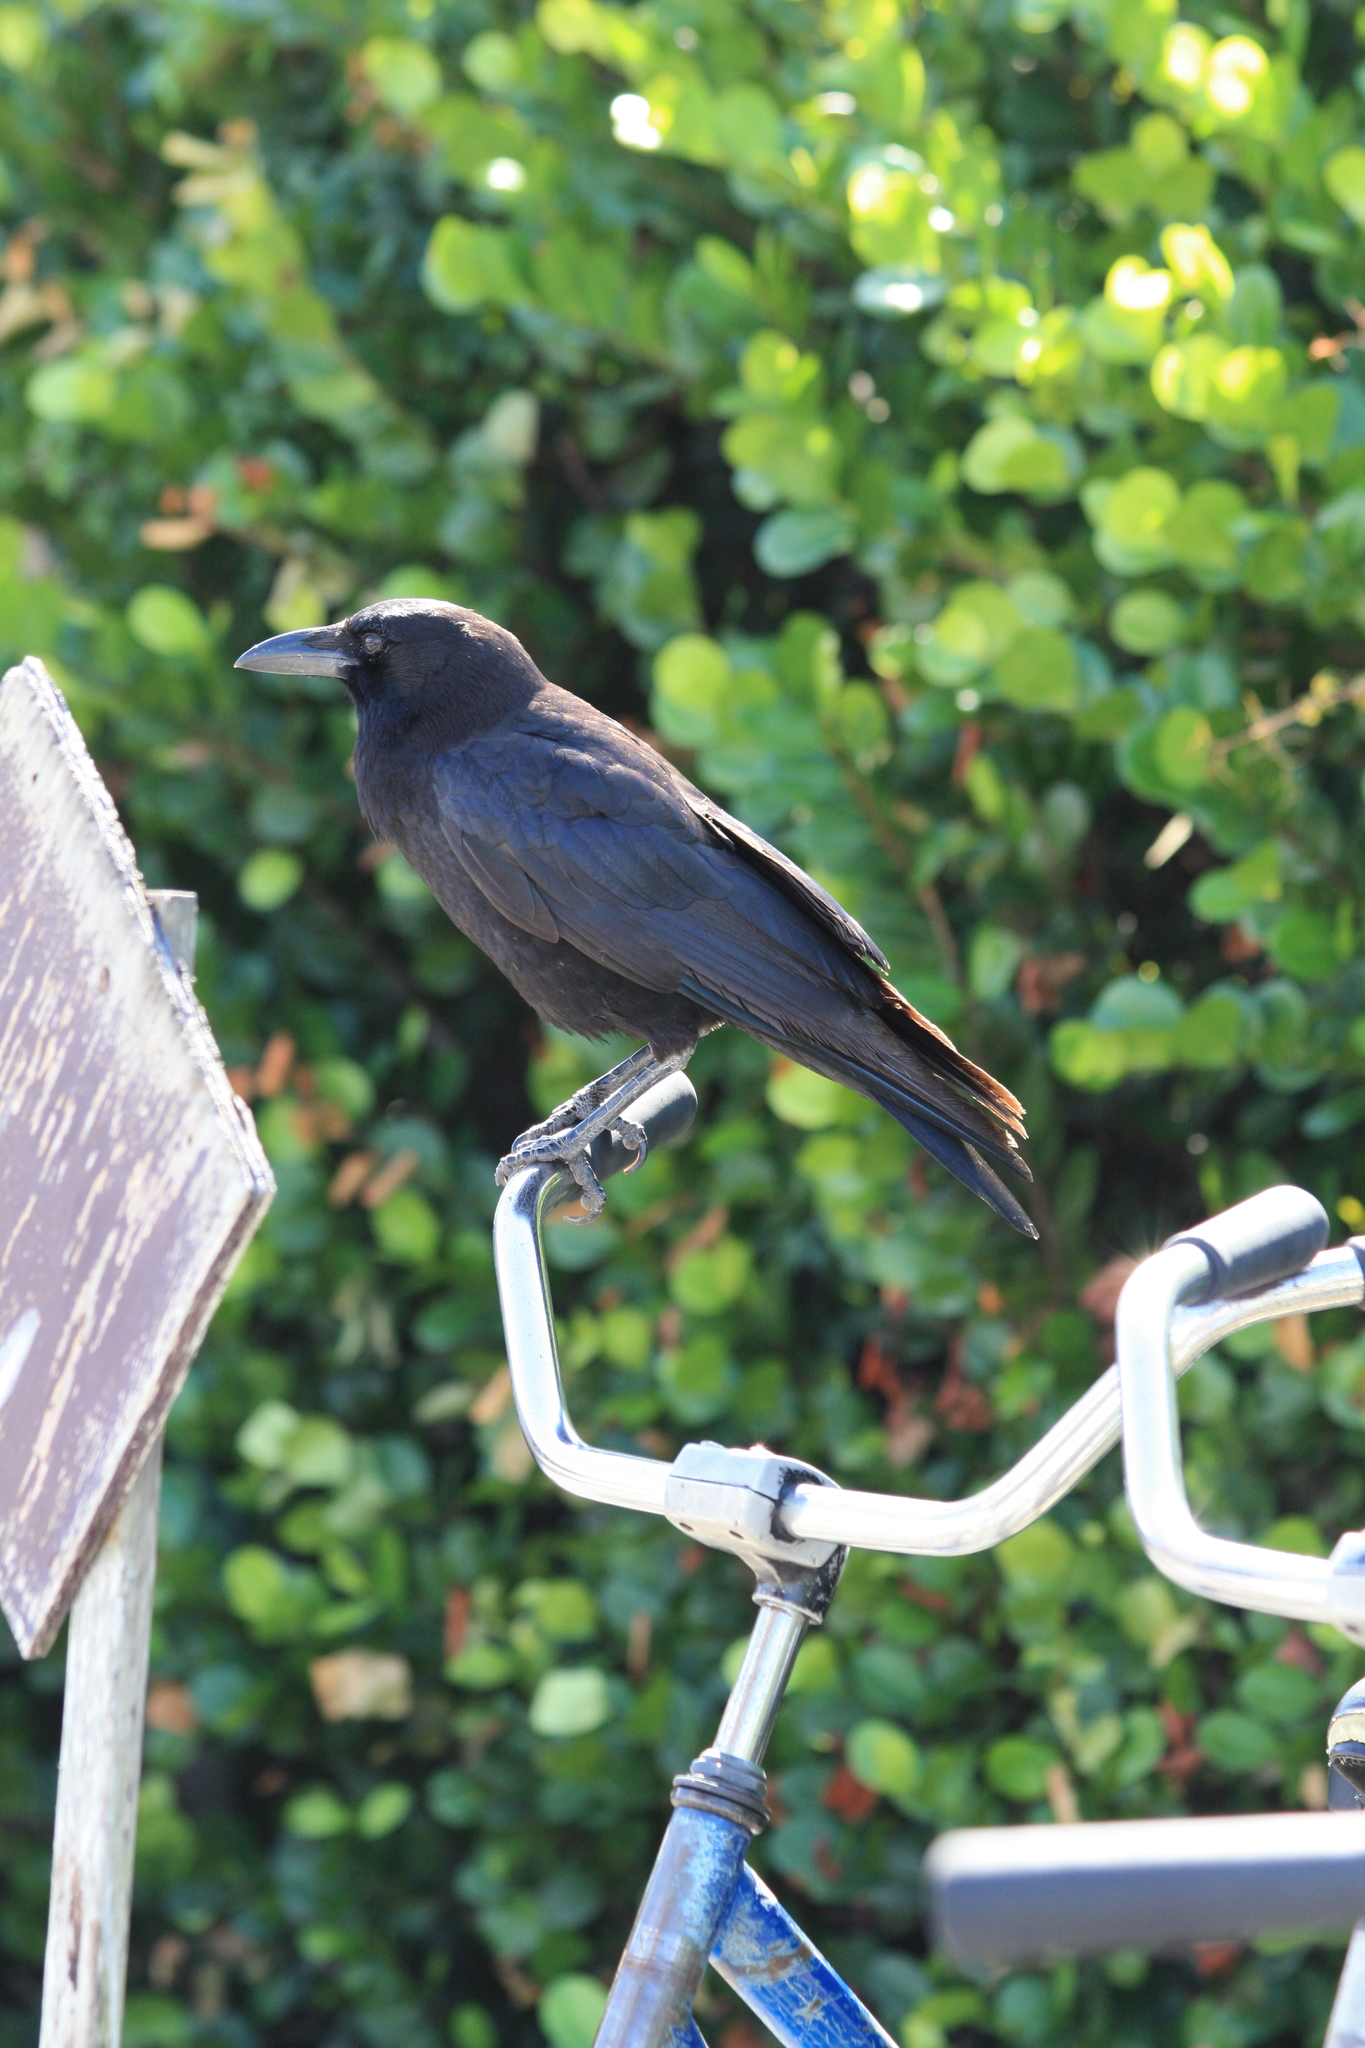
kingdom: Animalia
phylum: Chordata
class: Aves
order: Passeriformes
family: Corvidae
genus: Corvus
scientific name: Corvus brachyrhynchos
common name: American crow
